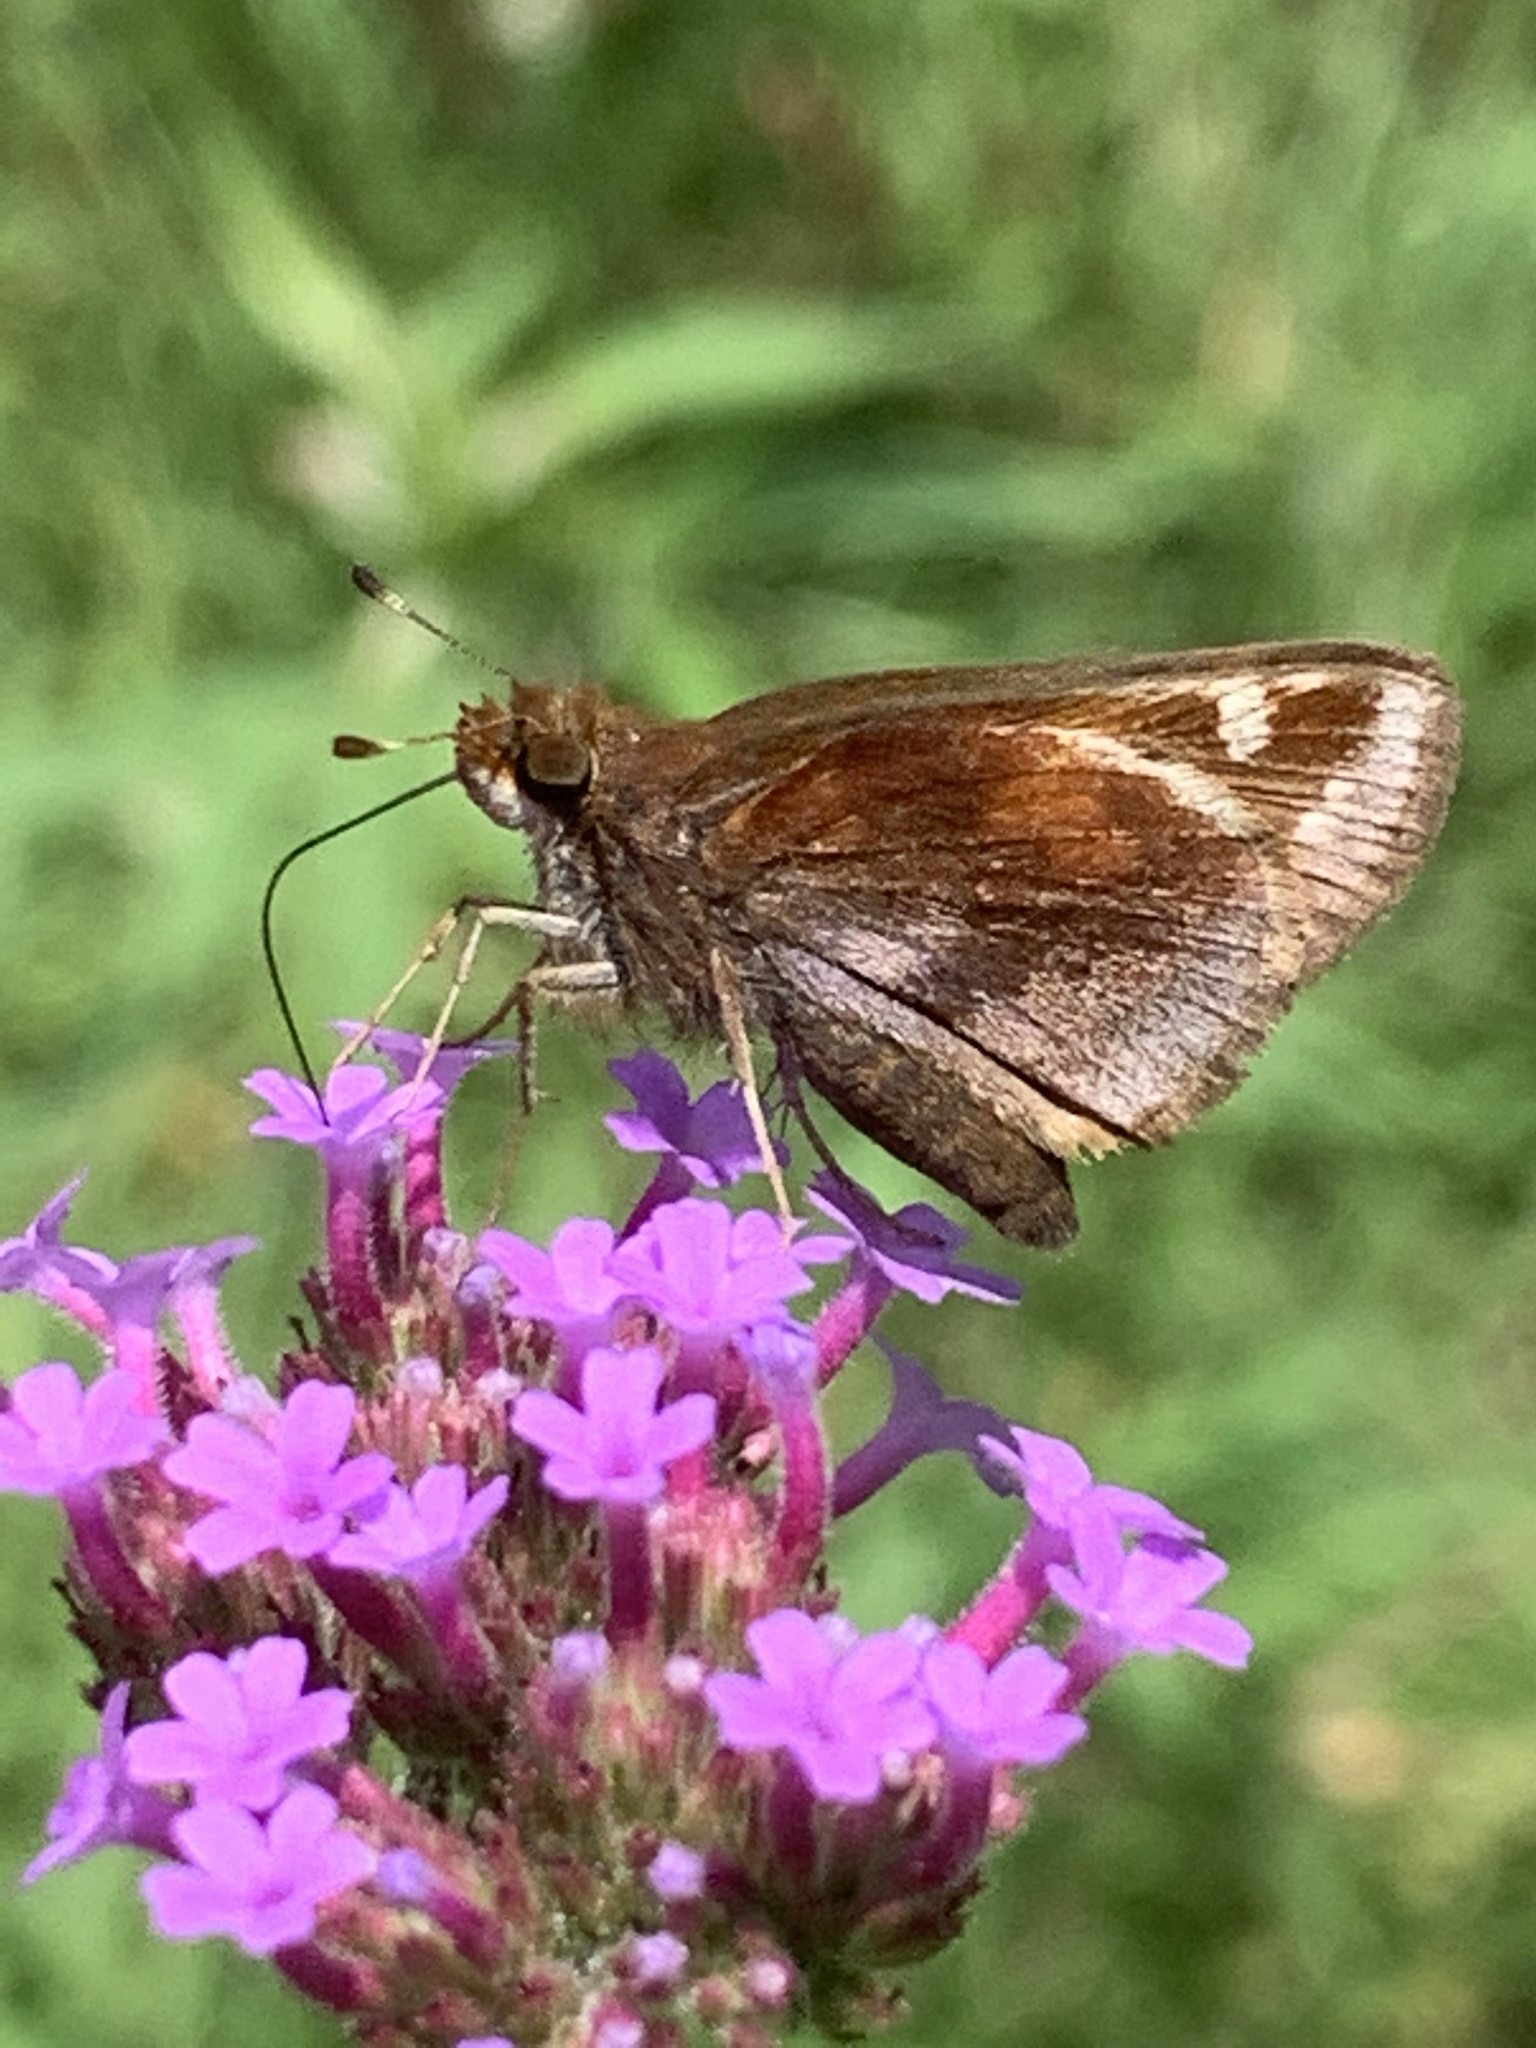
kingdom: Animalia
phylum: Arthropoda
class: Insecta
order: Lepidoptera
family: Hesperiidae
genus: Lon
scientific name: Lon zabulon
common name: Zabulon skipper
